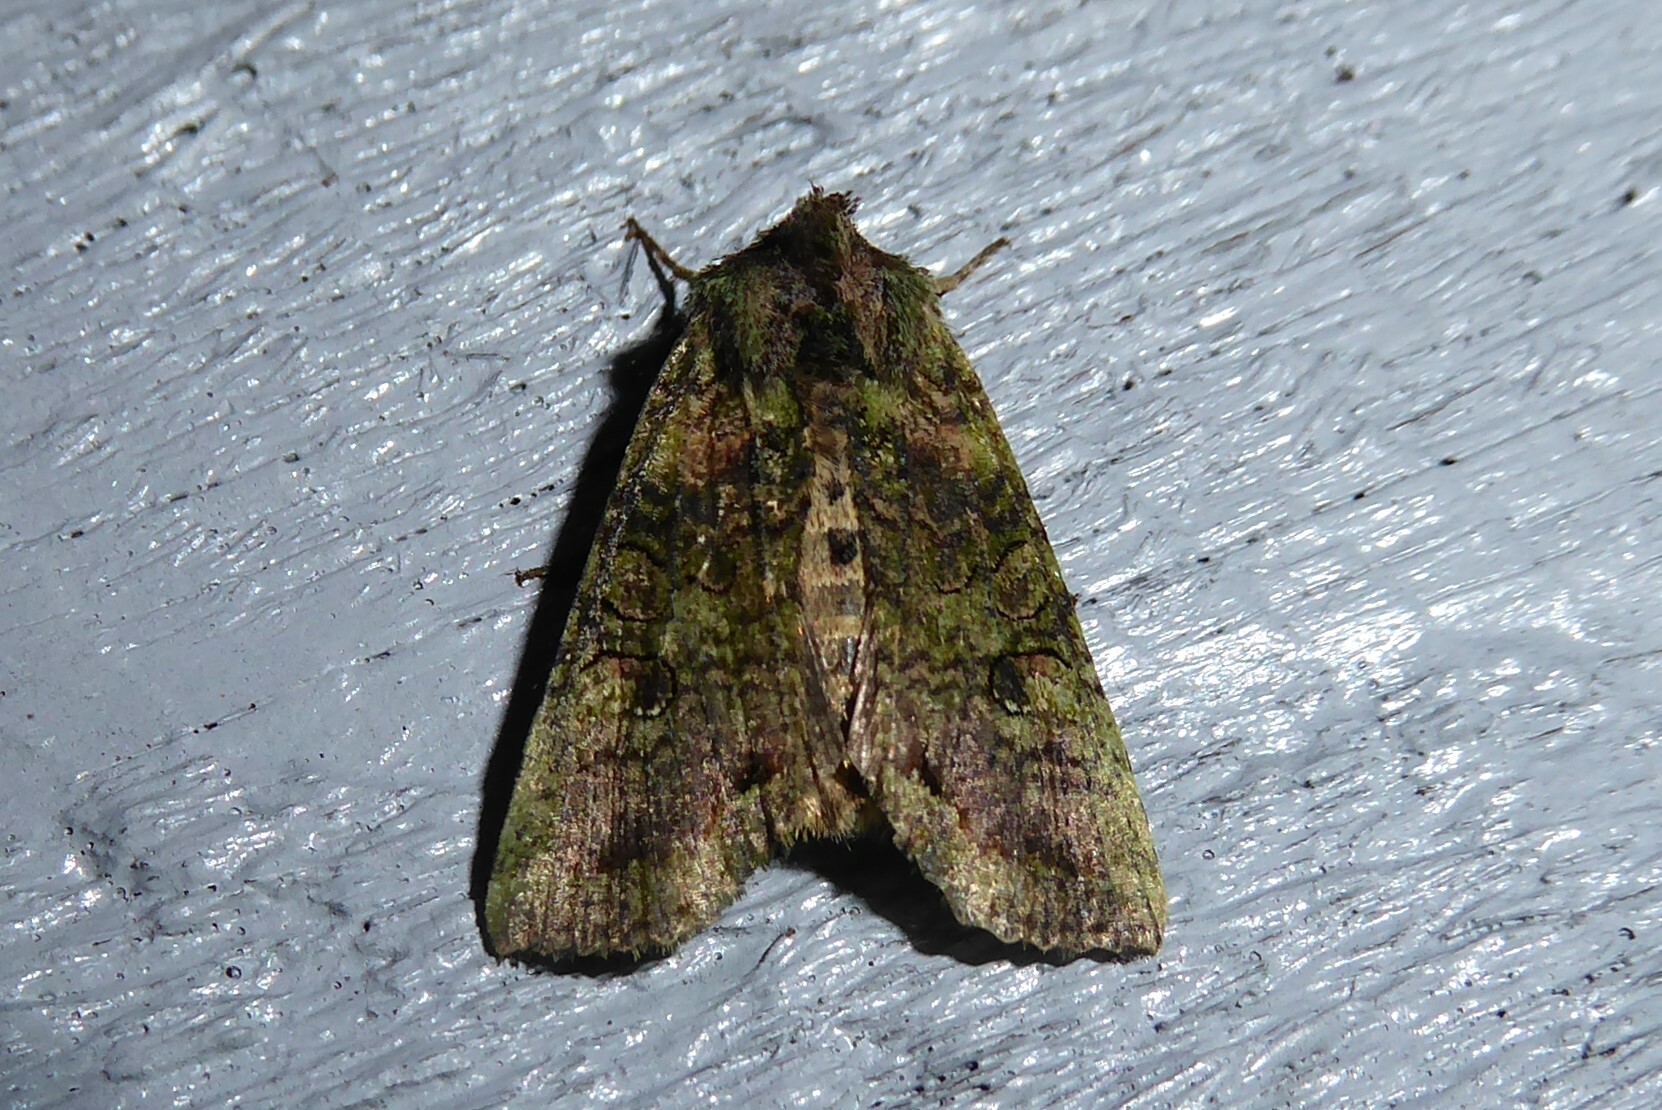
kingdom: Animalia
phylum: Arthropoda
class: Insecta
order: Lepidoptera
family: Noctuidae
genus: Meterana
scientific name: Meterana levis
